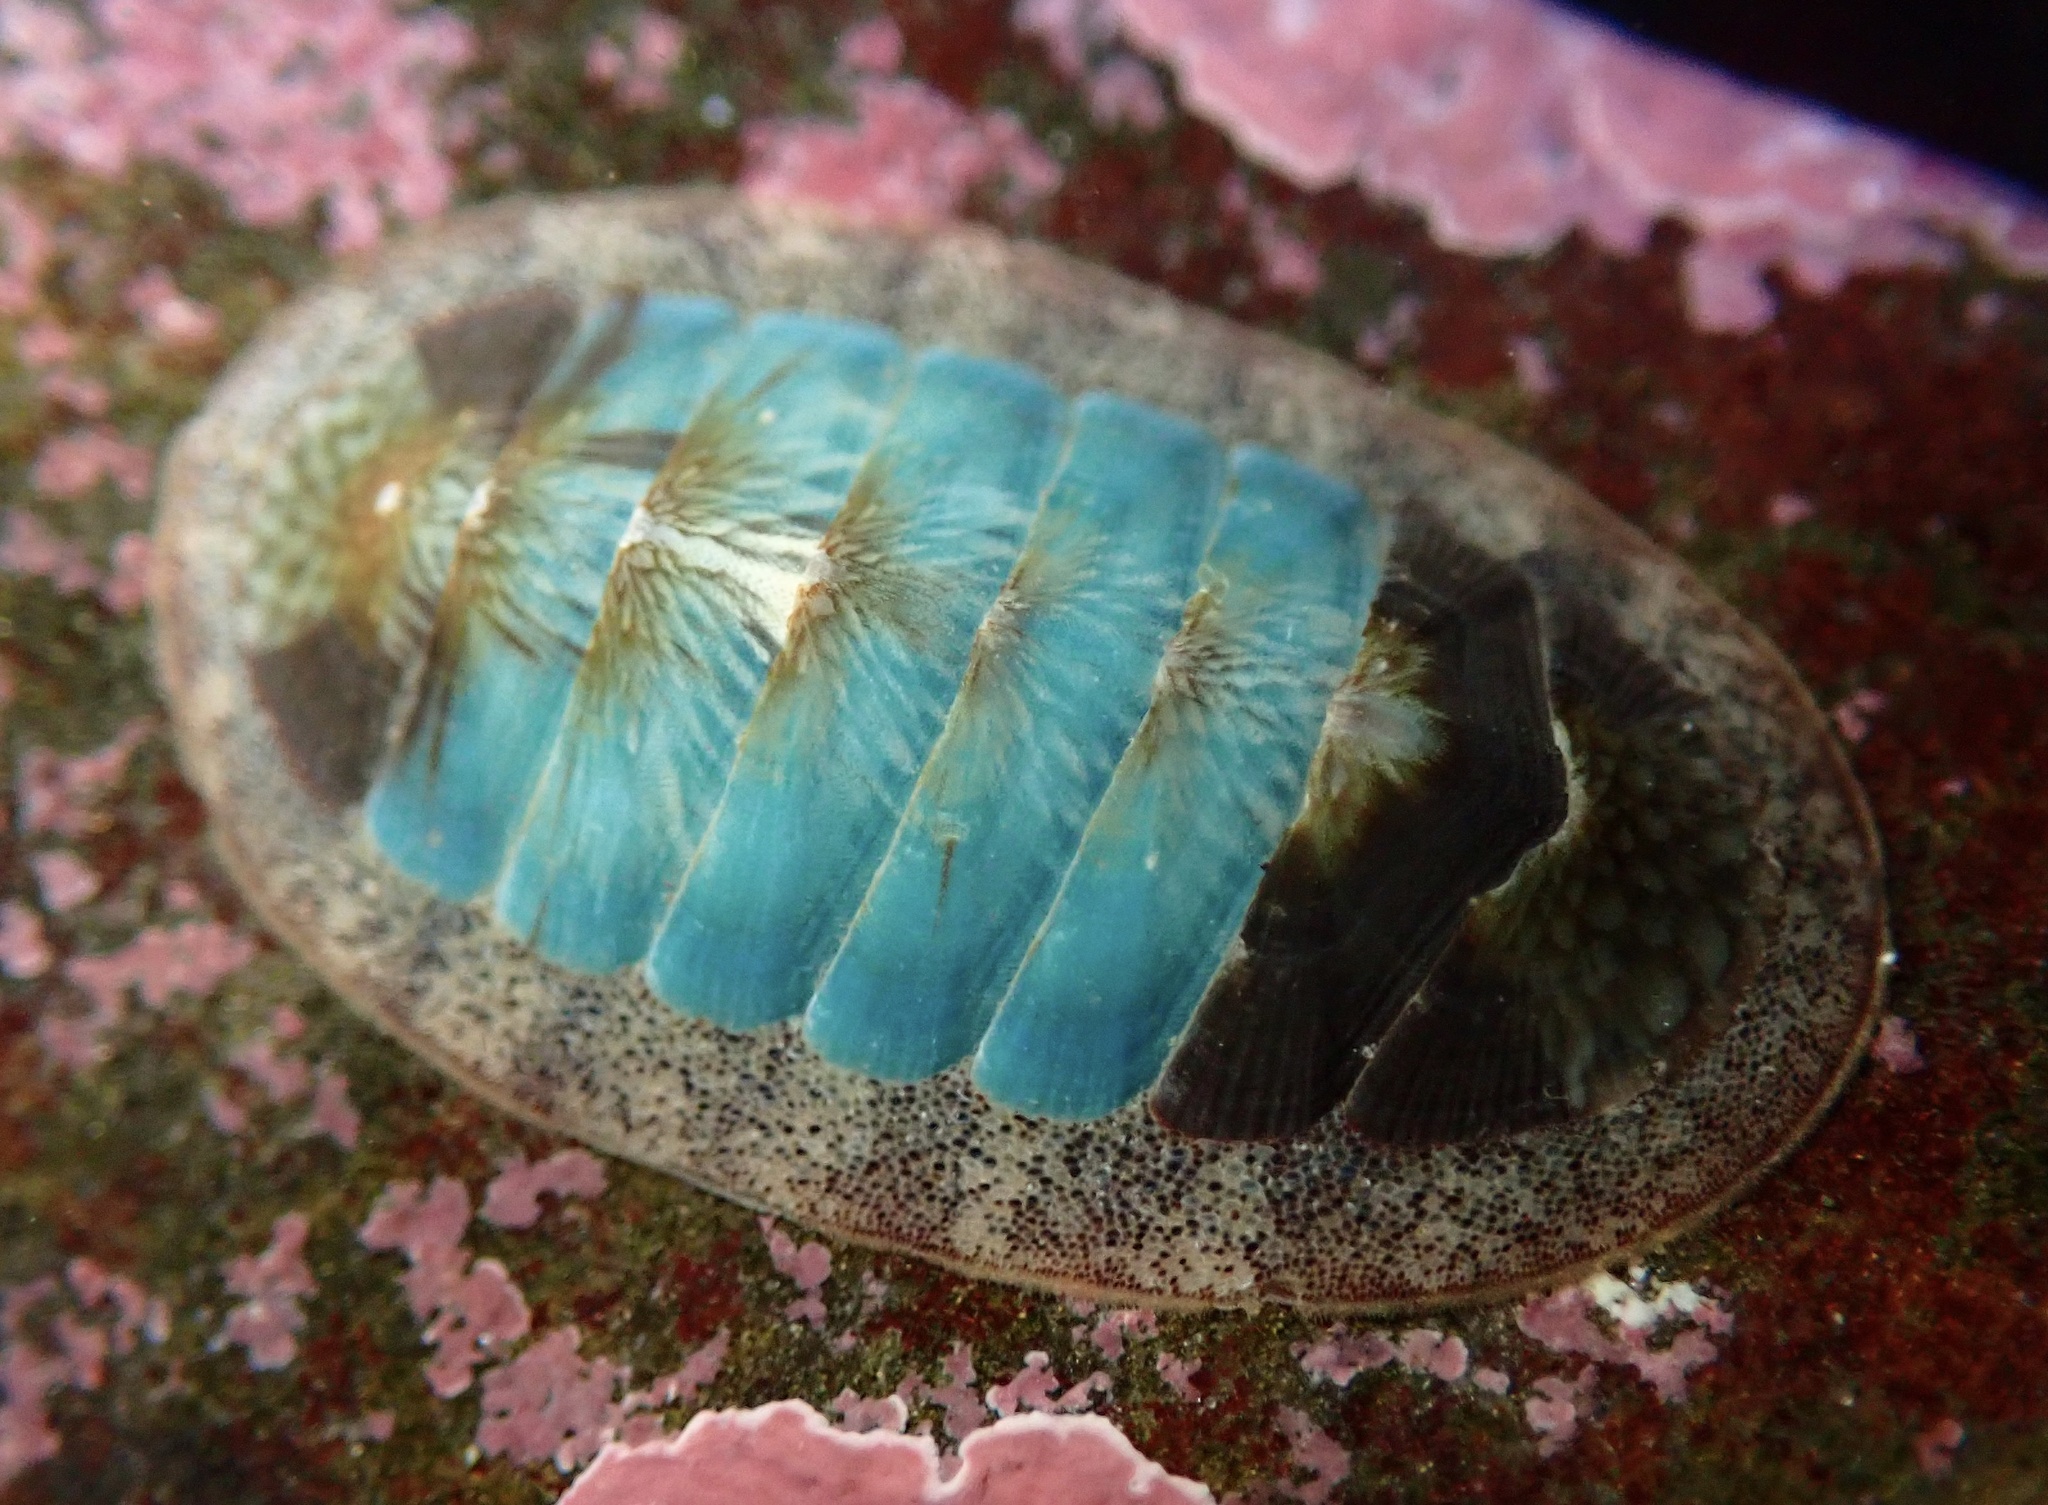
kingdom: Animalia
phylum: Mollusca
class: Polyplacophora
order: Chitonida
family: Ischnochitonidae
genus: Lepidozona
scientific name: Lepidozona radians
